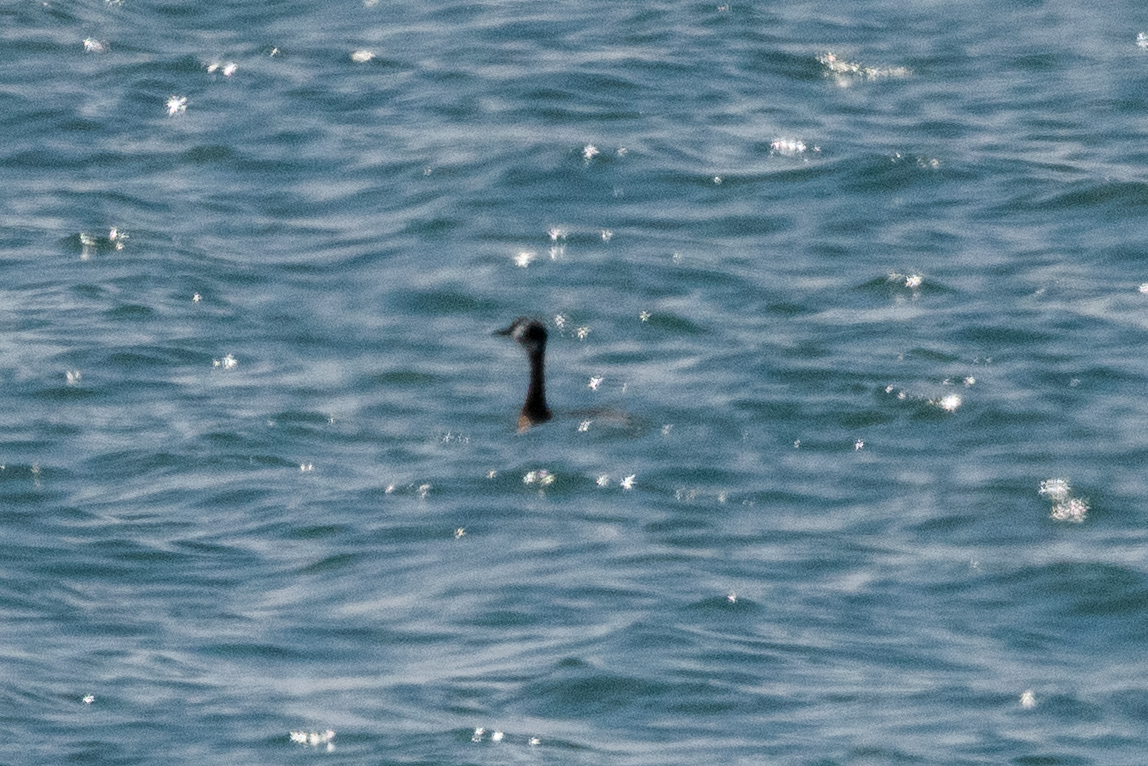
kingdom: Animalia
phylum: Chordata
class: Aves
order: Podicipediformes
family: Podicipedidae
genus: Podiceps
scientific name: Podiceps grisegena
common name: Red-necked grebe
